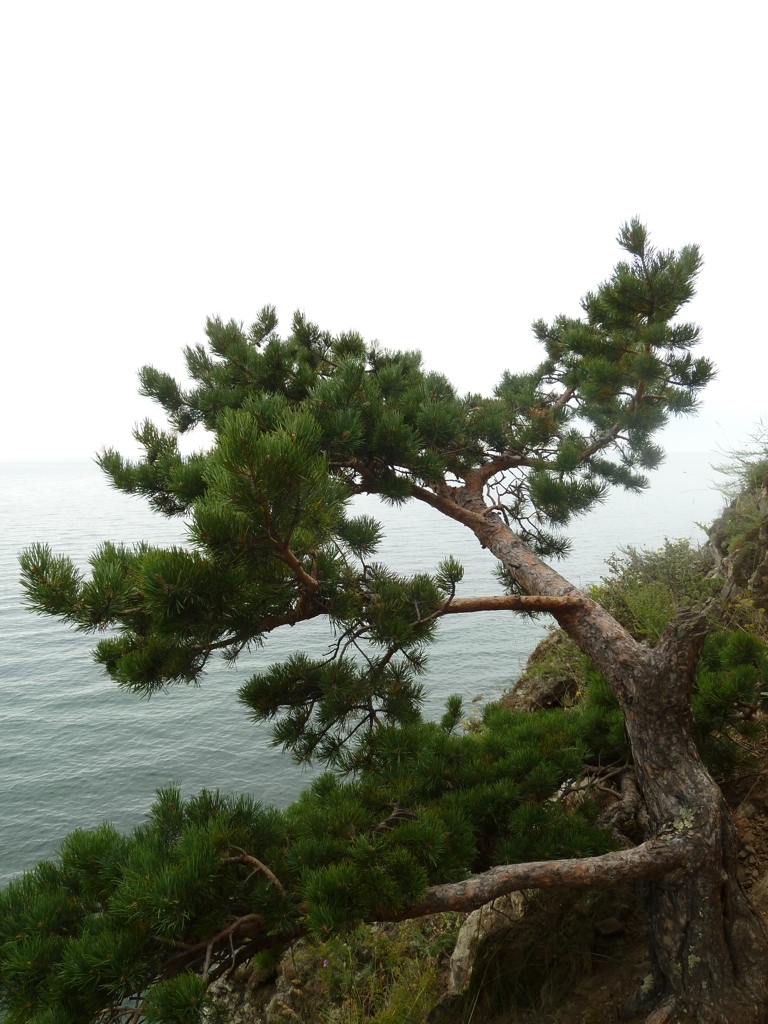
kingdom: Plantae
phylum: Tracheophyta
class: Pinopsida
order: Pinales
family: Pinaceae
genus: Pinus
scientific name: Pinus sylvestris
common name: Scots pine
